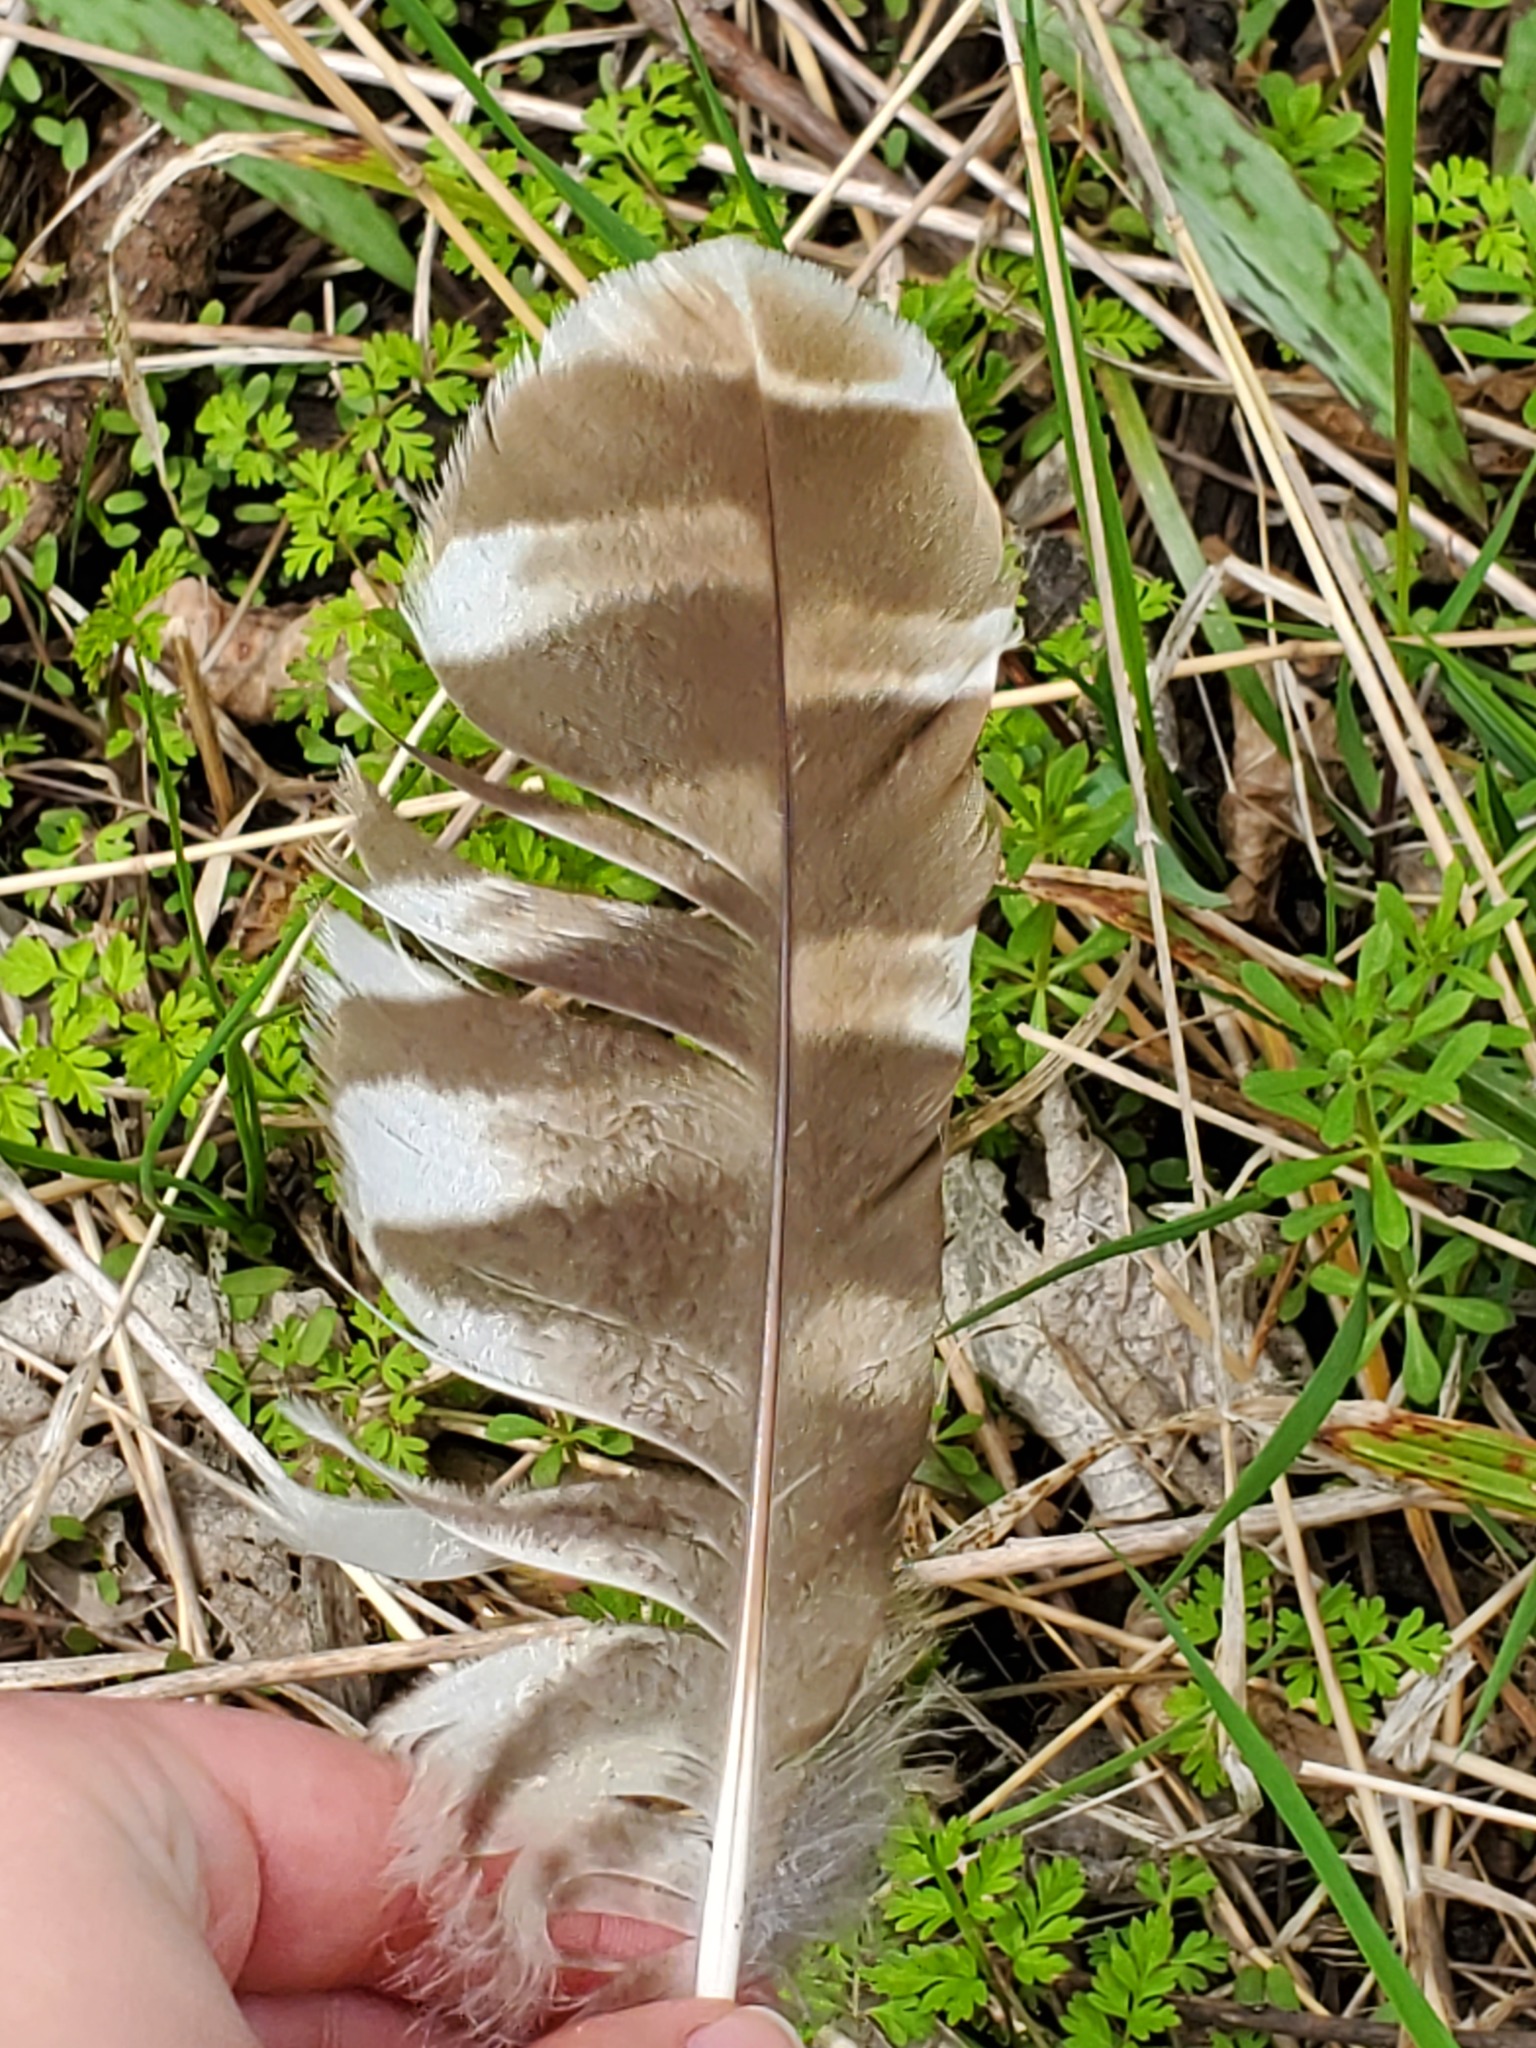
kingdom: Animalia
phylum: Chordata
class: Aves
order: Strigiformes
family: Strigidae
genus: Strix
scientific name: Strix varia
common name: Barred owl
